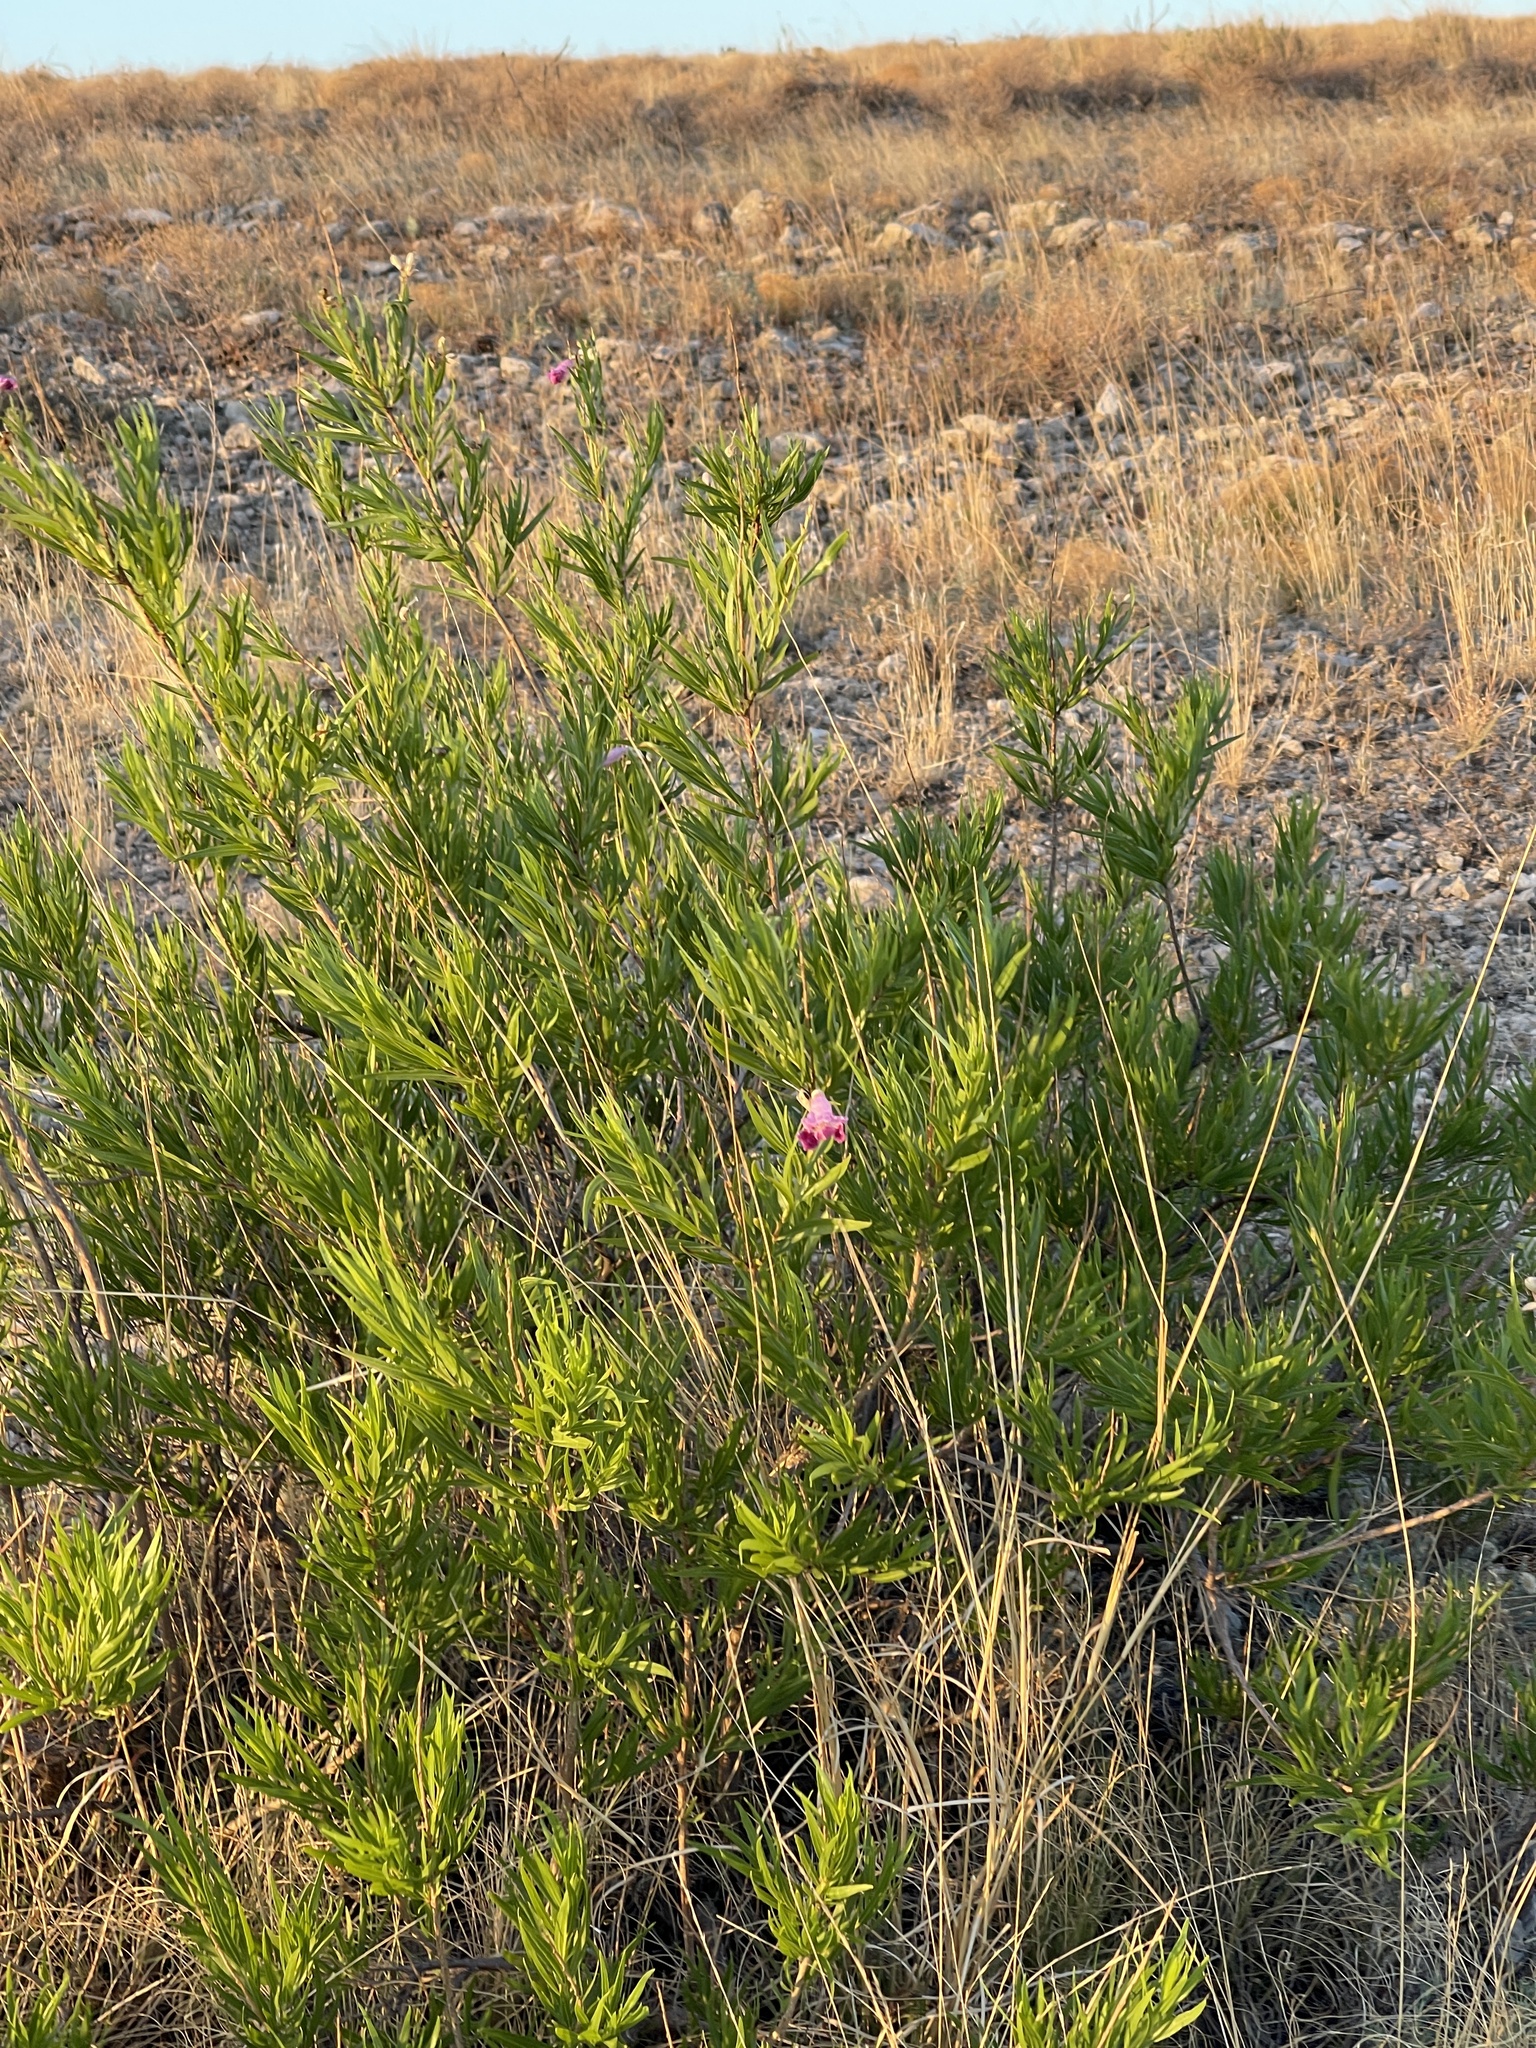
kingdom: Plantae
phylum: Tracheophyta
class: Magnoliopsida
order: Lamiales
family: Bignoniaceae
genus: Chilopsis
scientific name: Chilopsis linearis
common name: Desert-willow
